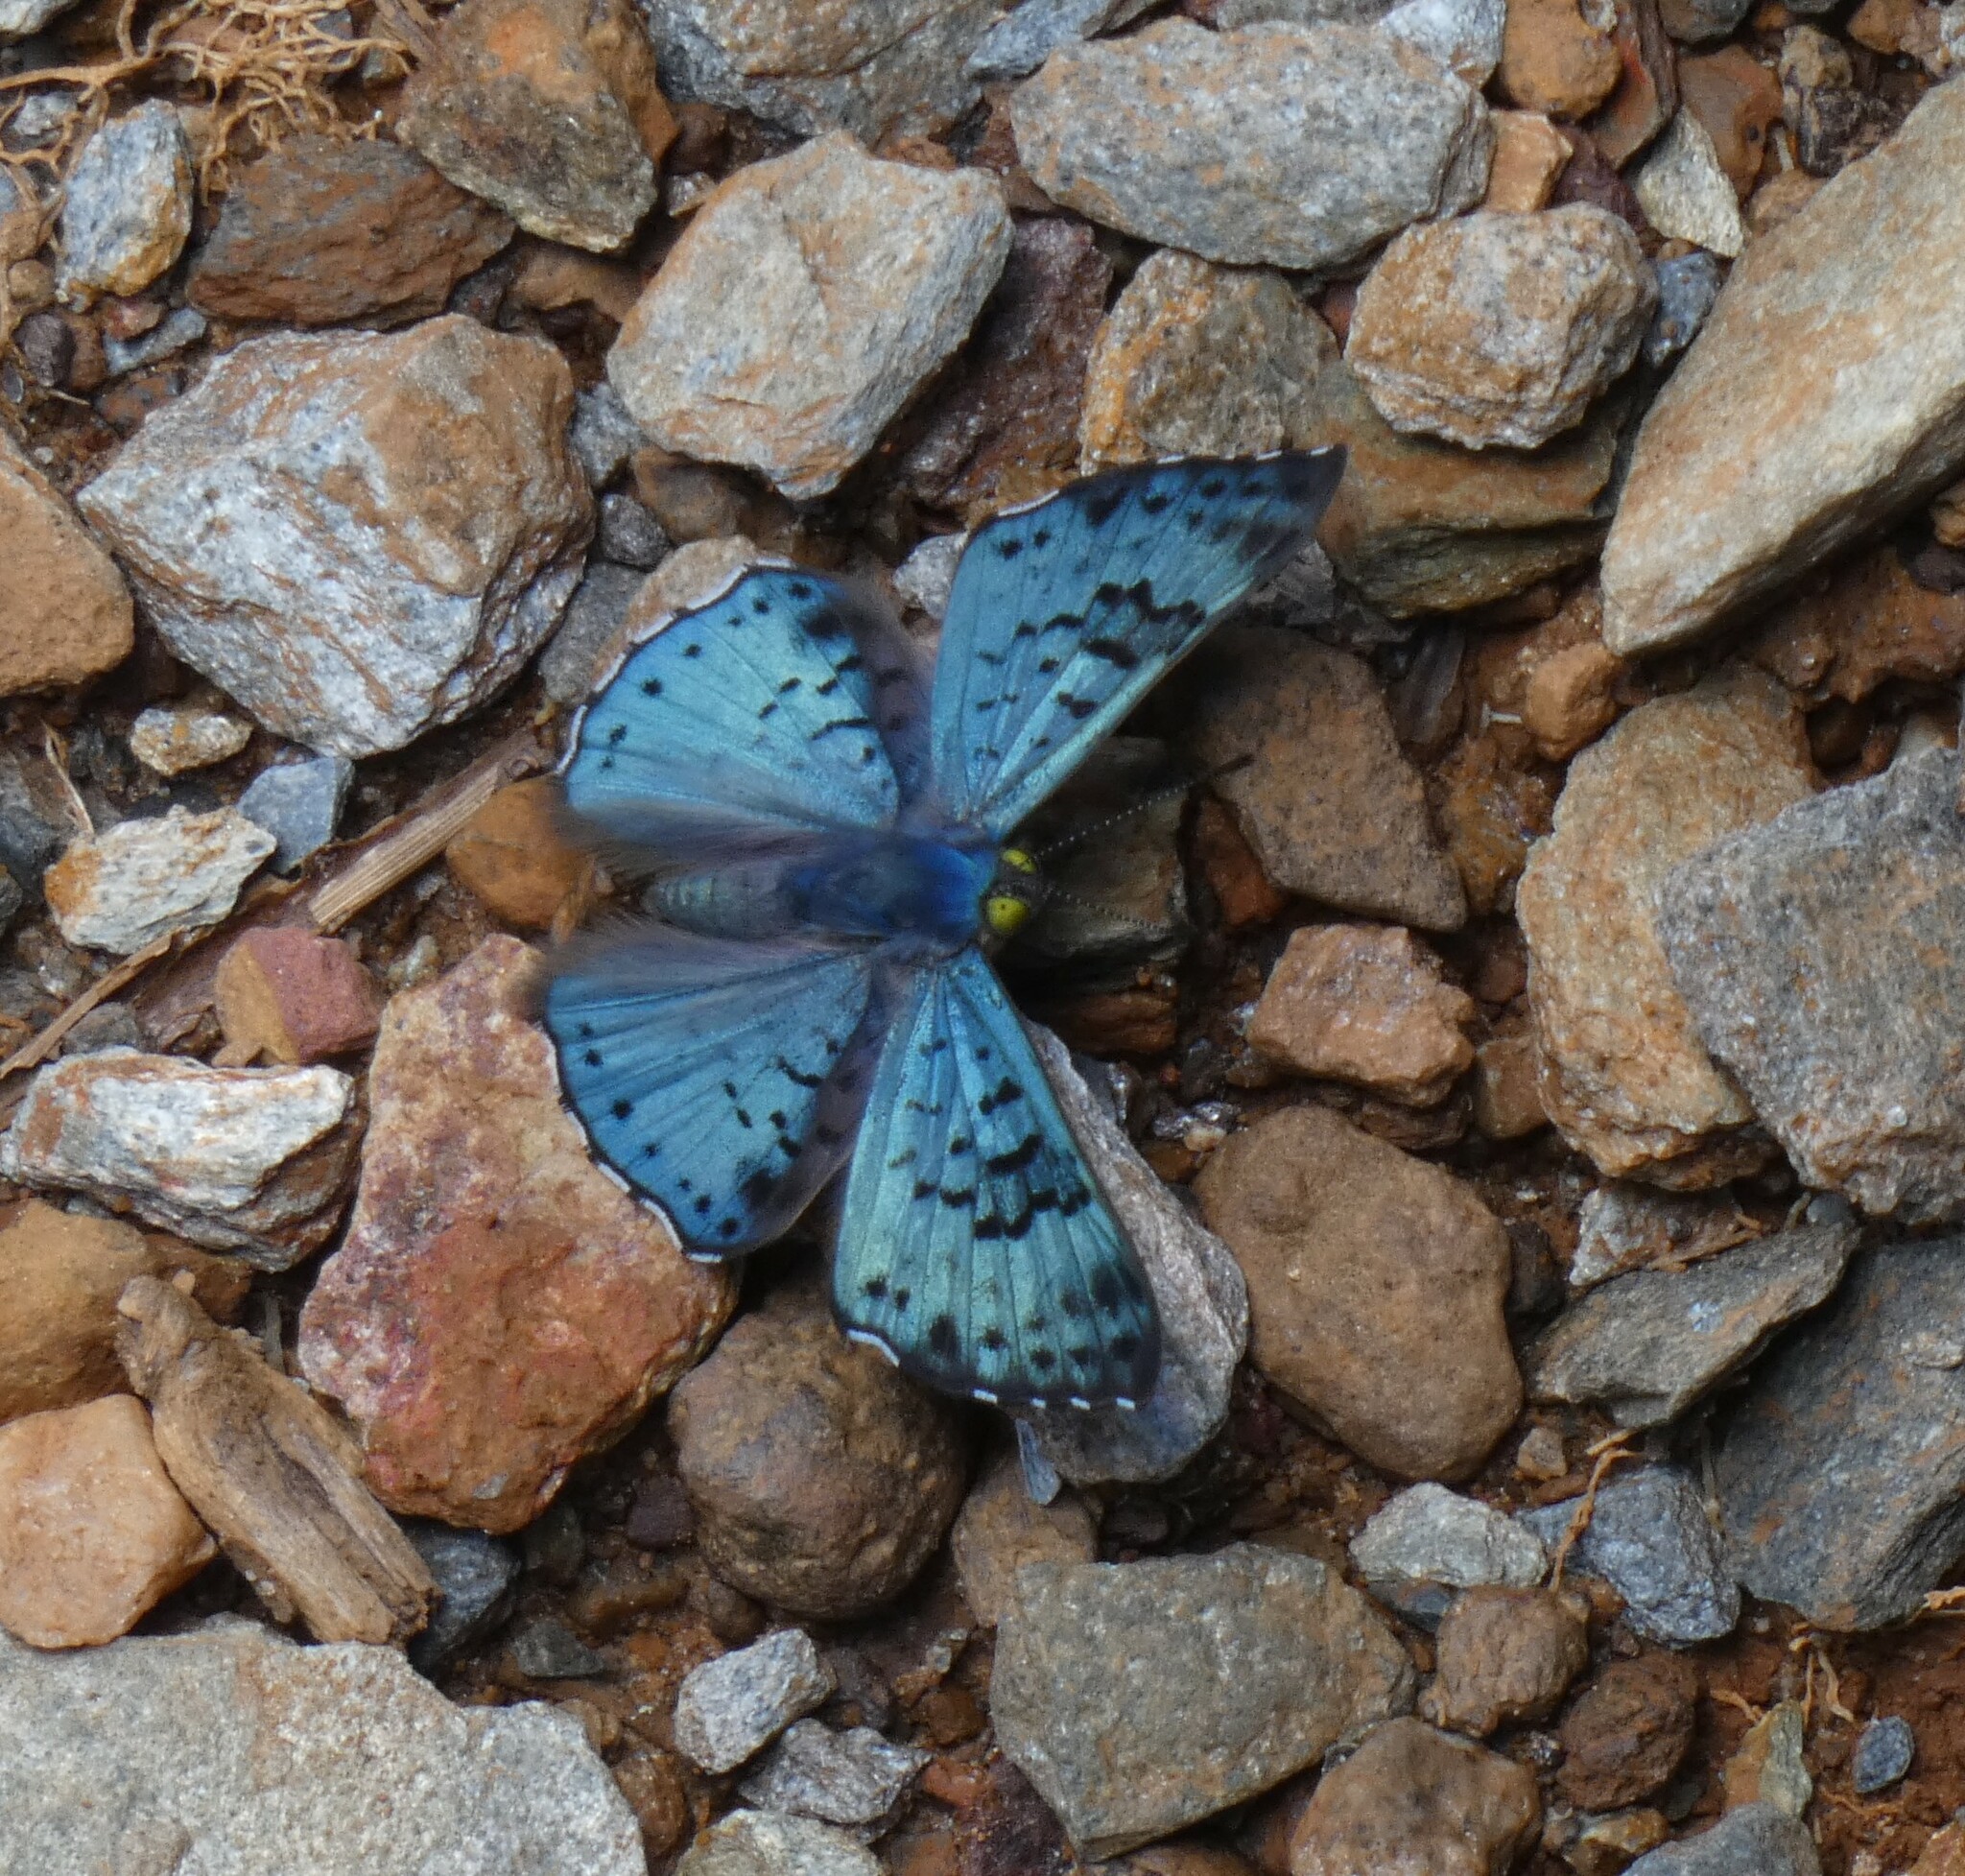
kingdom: Animalia
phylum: Arthropoda
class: Insecta
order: Lepidoptera
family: Riodinidae
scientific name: Riodinidae
